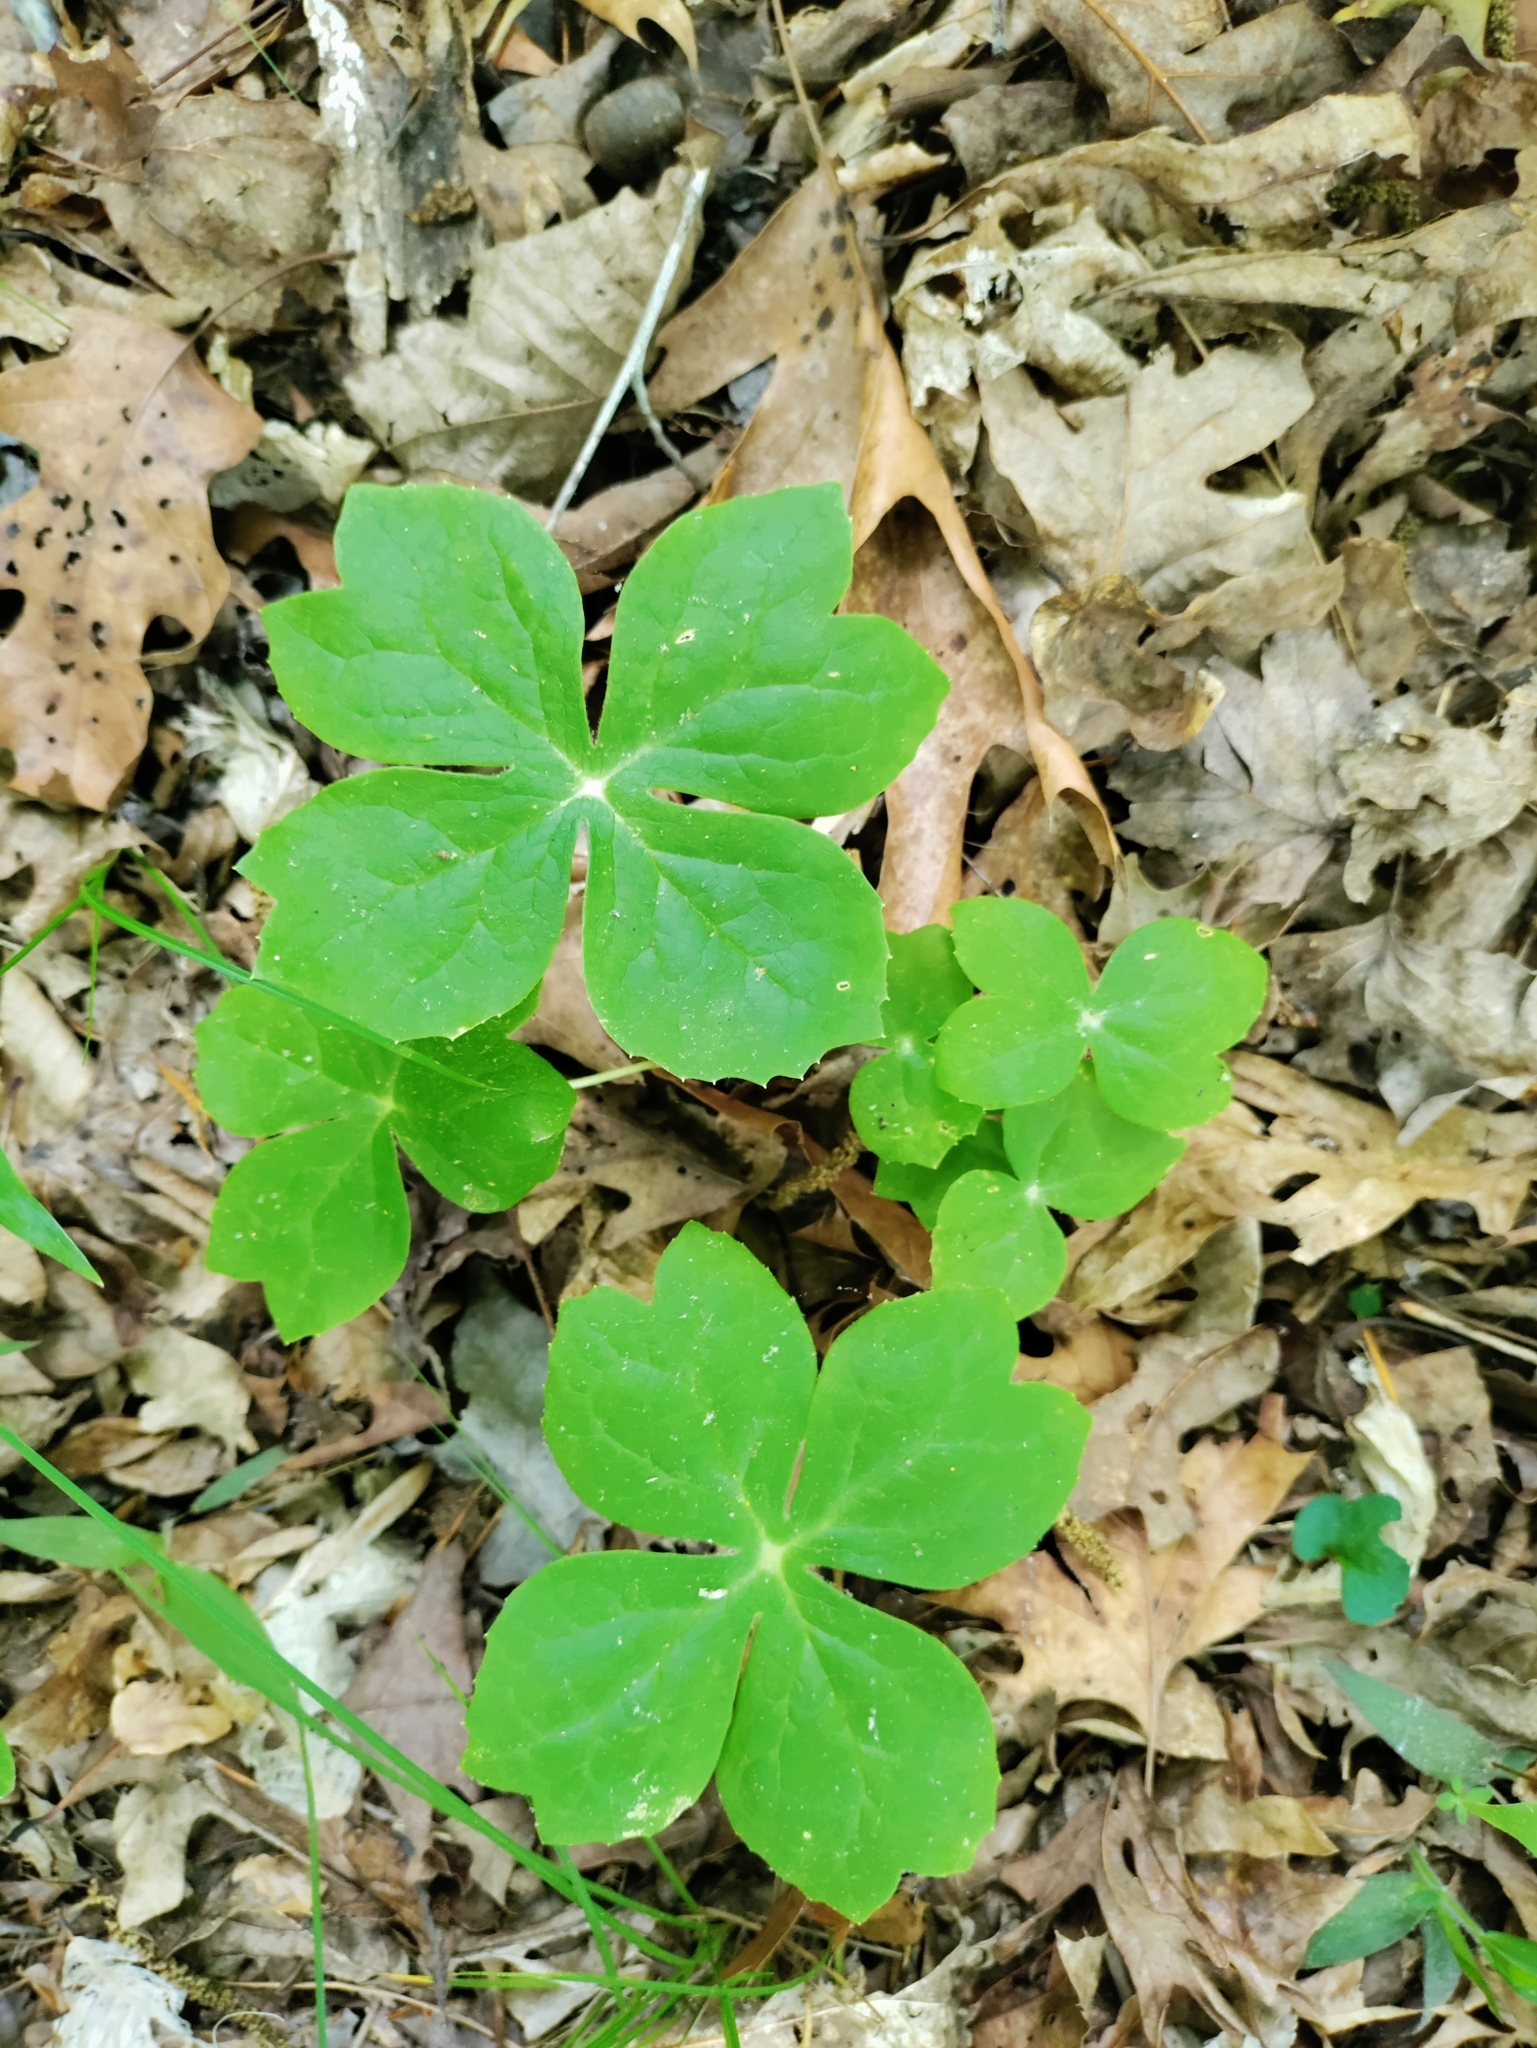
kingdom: Plantae
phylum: Tracheophyta
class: Magnoliopsida
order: Ranunculales
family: Berberidaceae
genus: Podophyllum
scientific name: Podophyllum peltatum
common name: Wild mandrake
